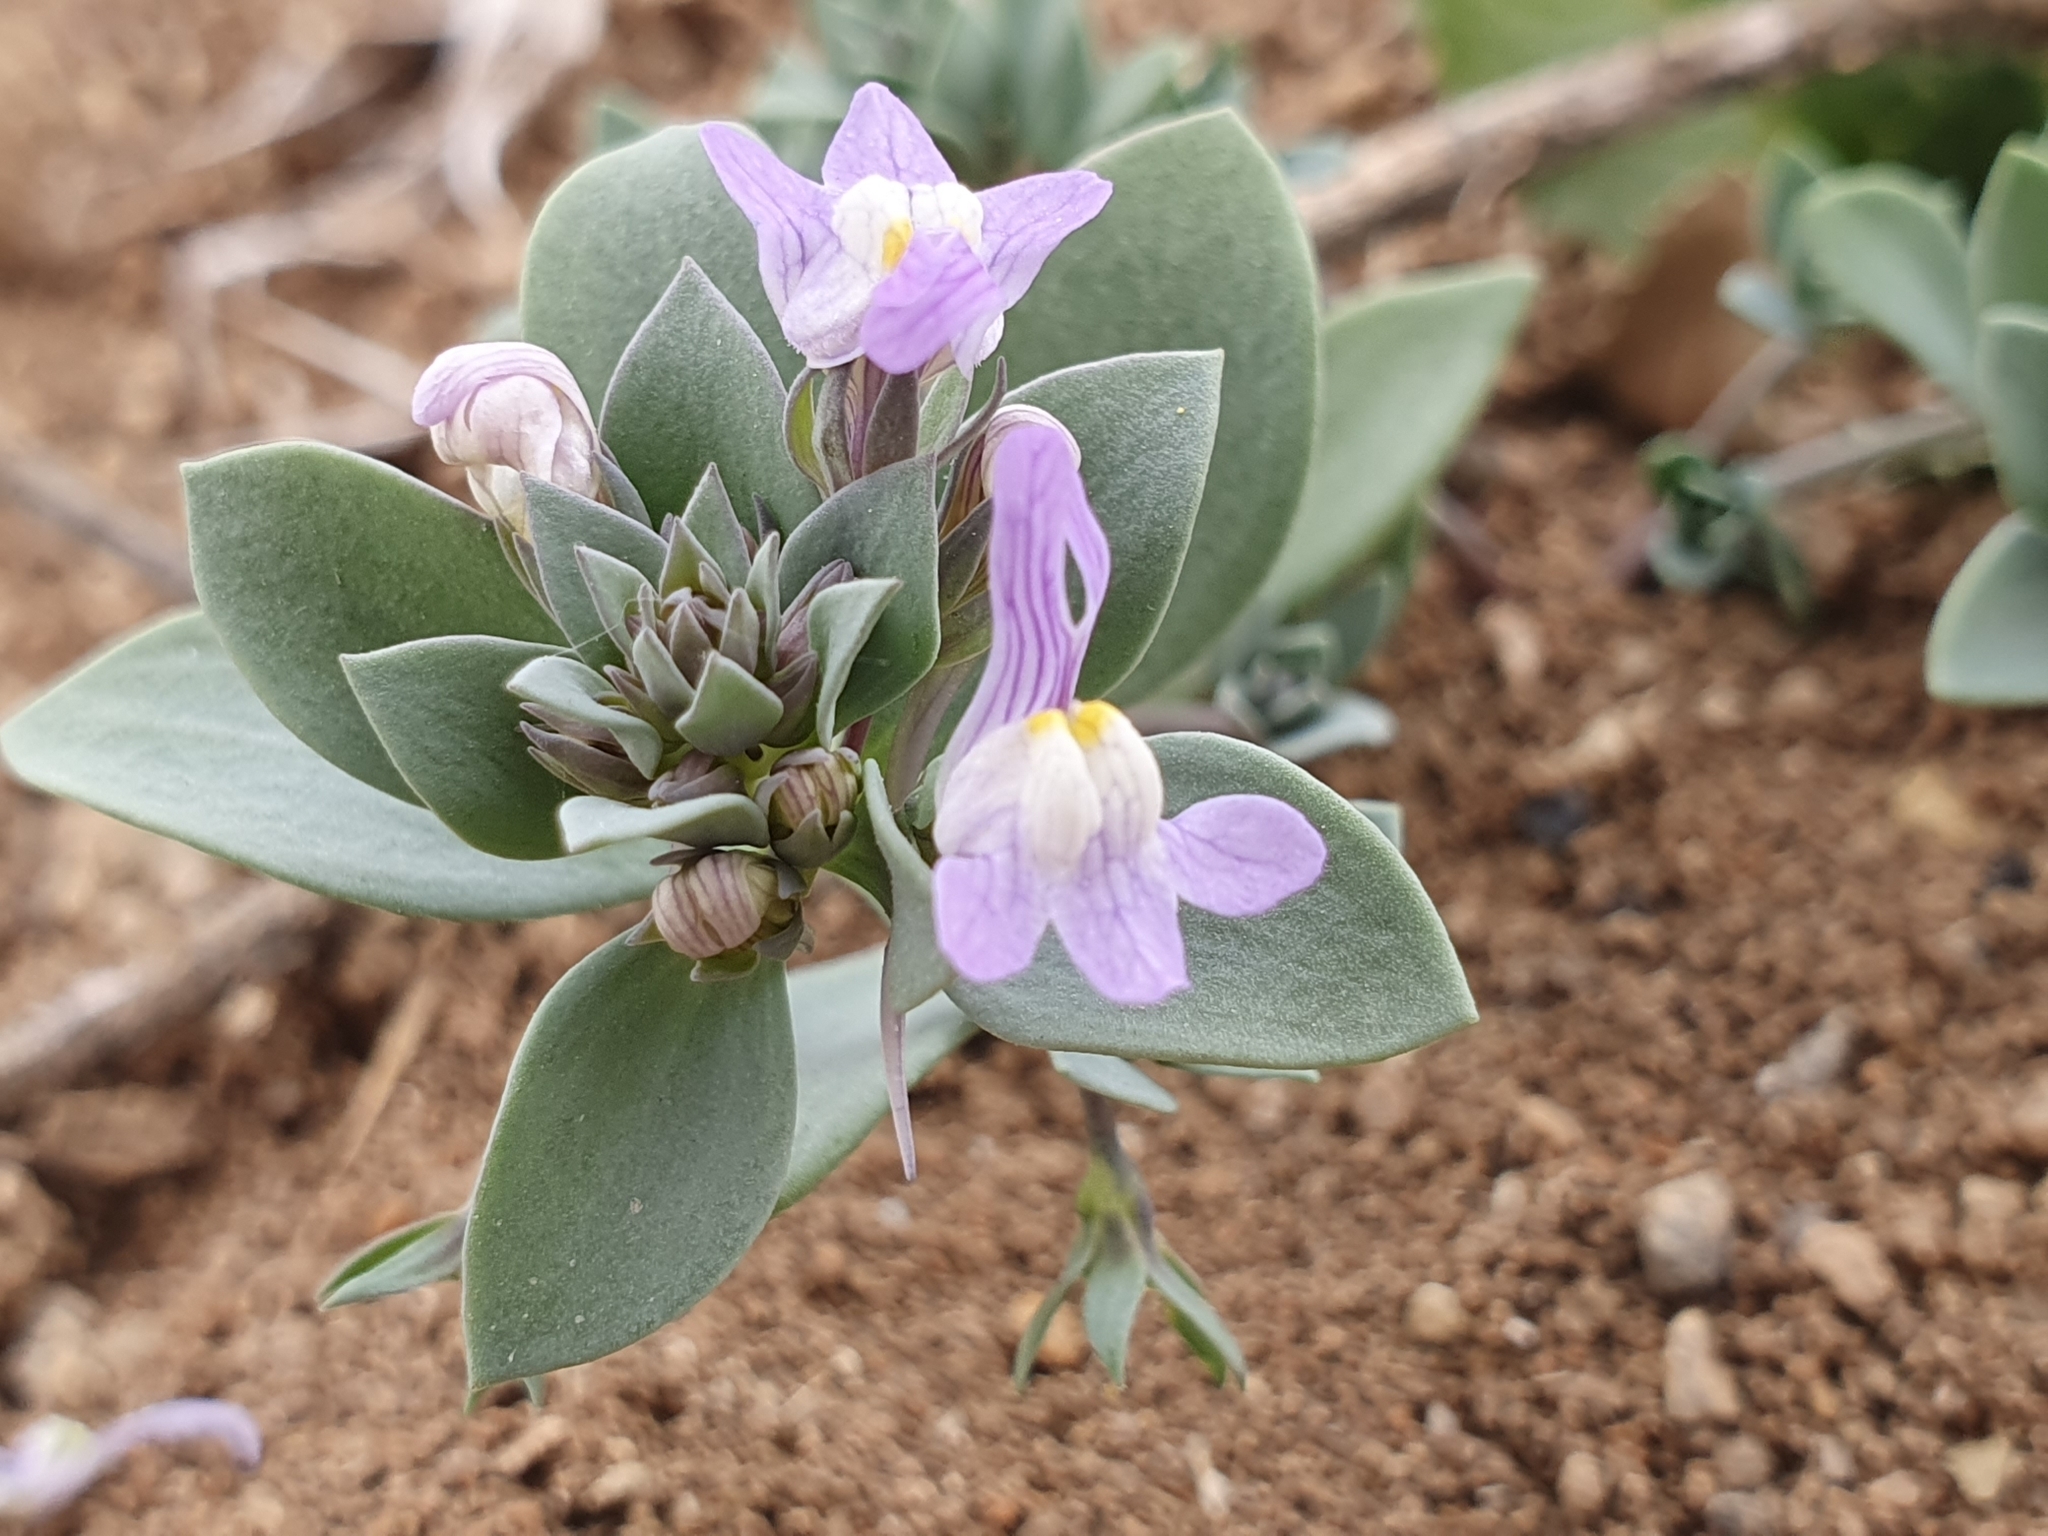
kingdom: Plantae
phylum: Tracheophyta
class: Magnoliopsida
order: Lamiales
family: Plantaginaceae
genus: Linaria
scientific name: Linaria reflexa
